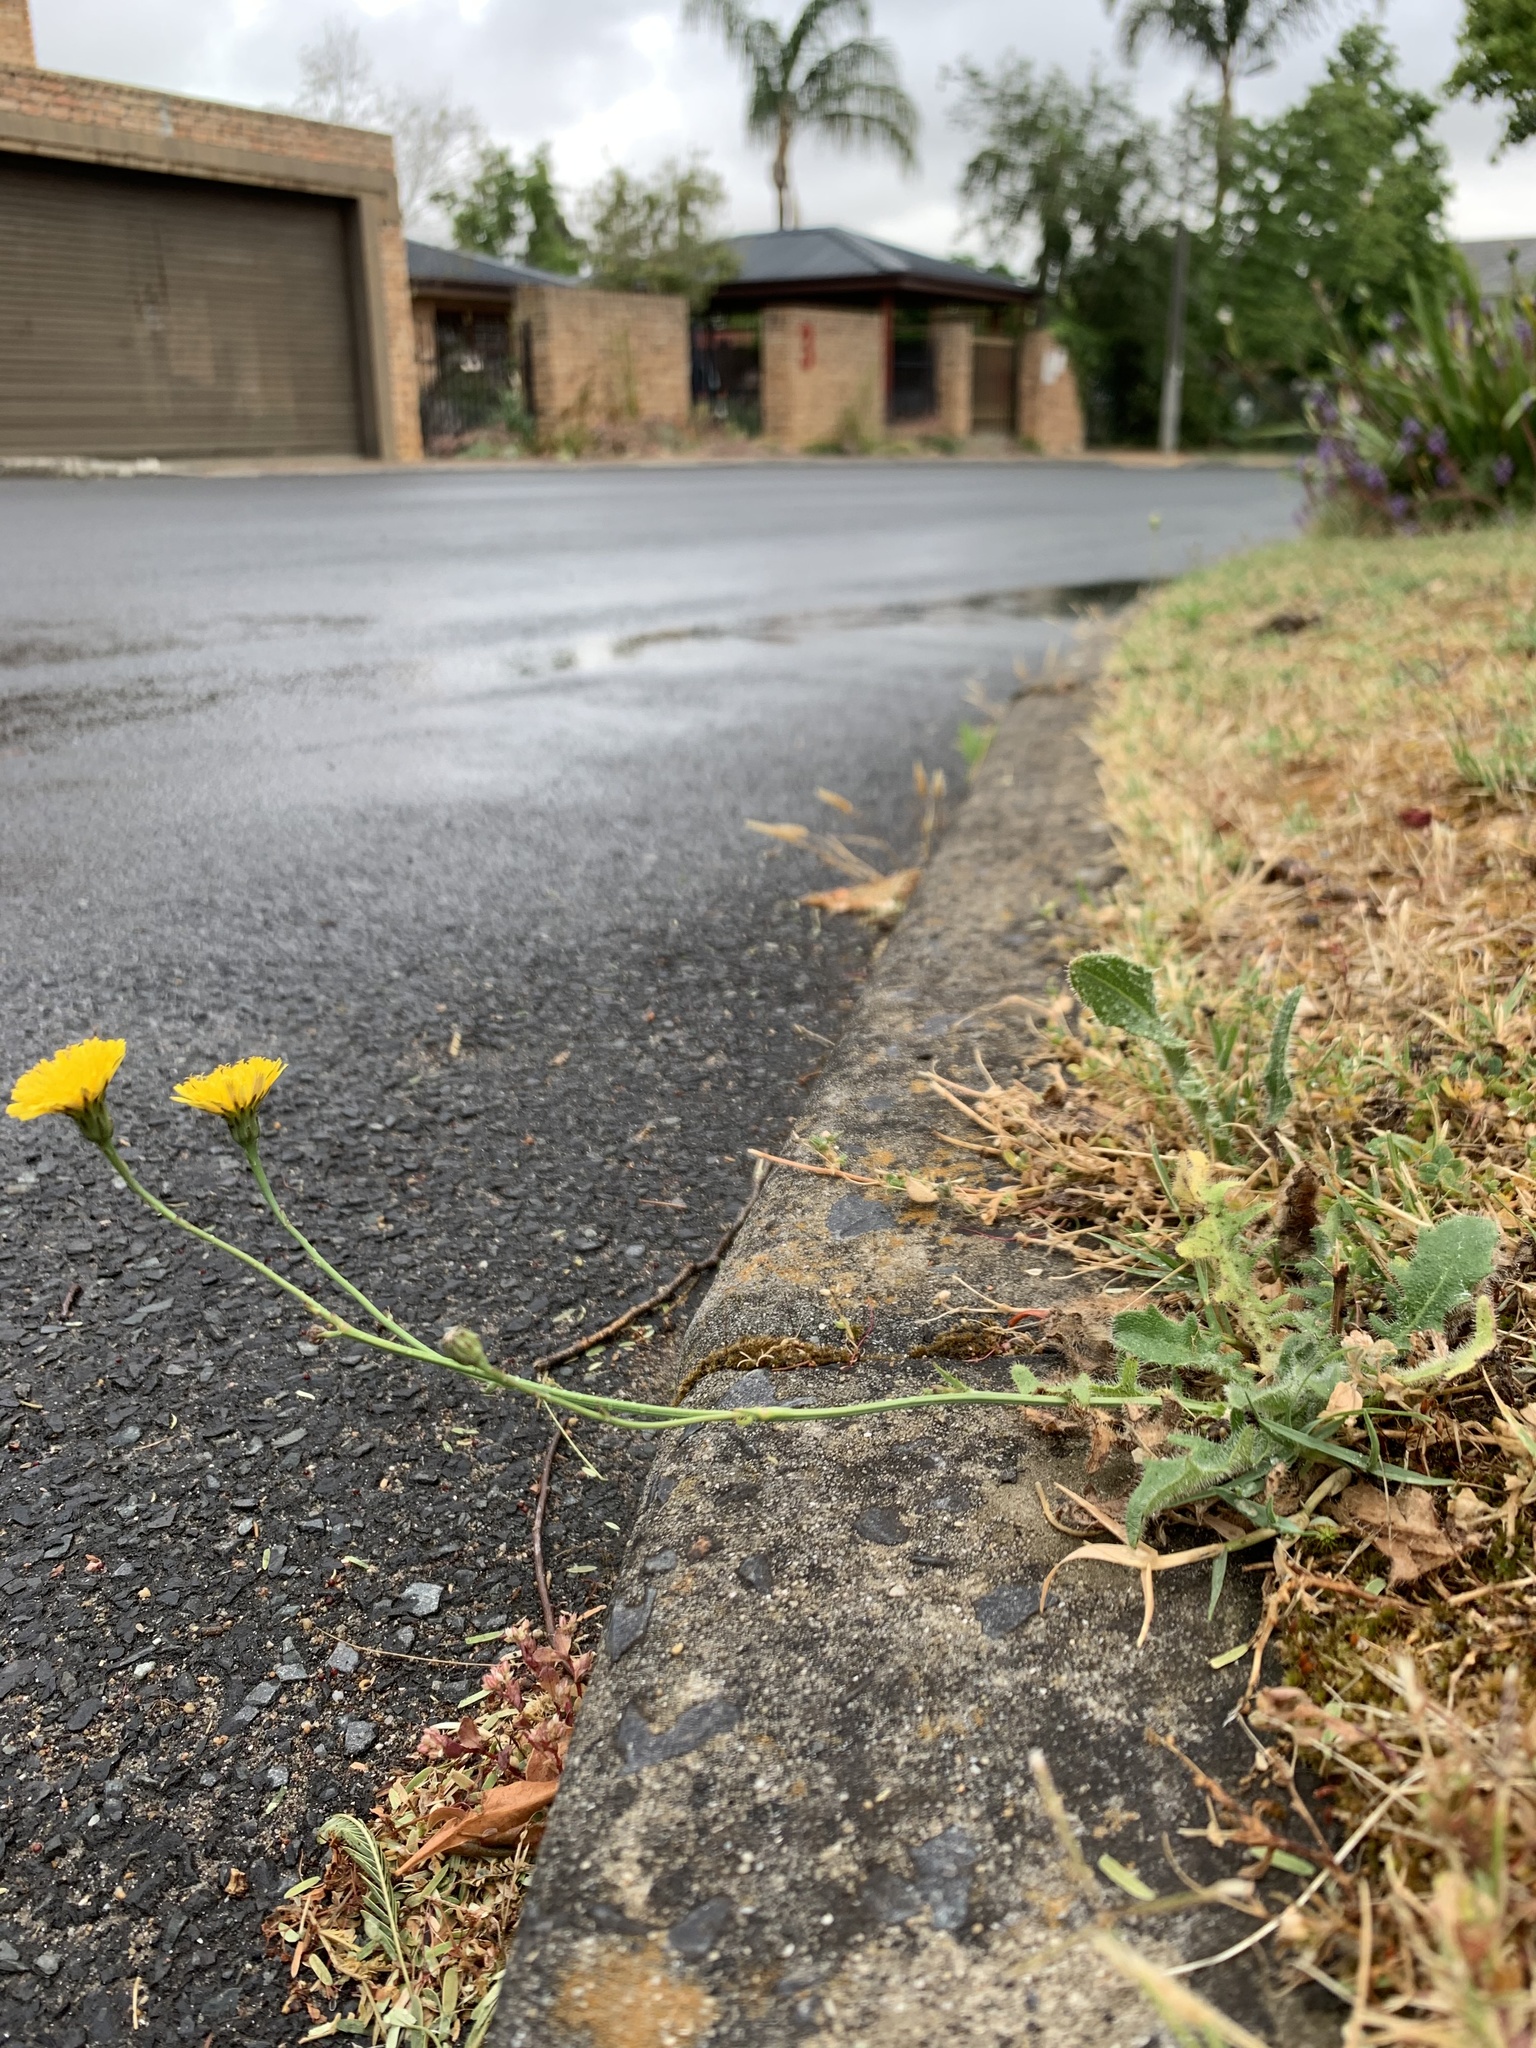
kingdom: Plantae
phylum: Tracheophyta
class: Magnoliopsida
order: Asterales
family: Asteraceae
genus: Hypochaeris
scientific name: Hypochaeris radicata
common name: Flatweed
